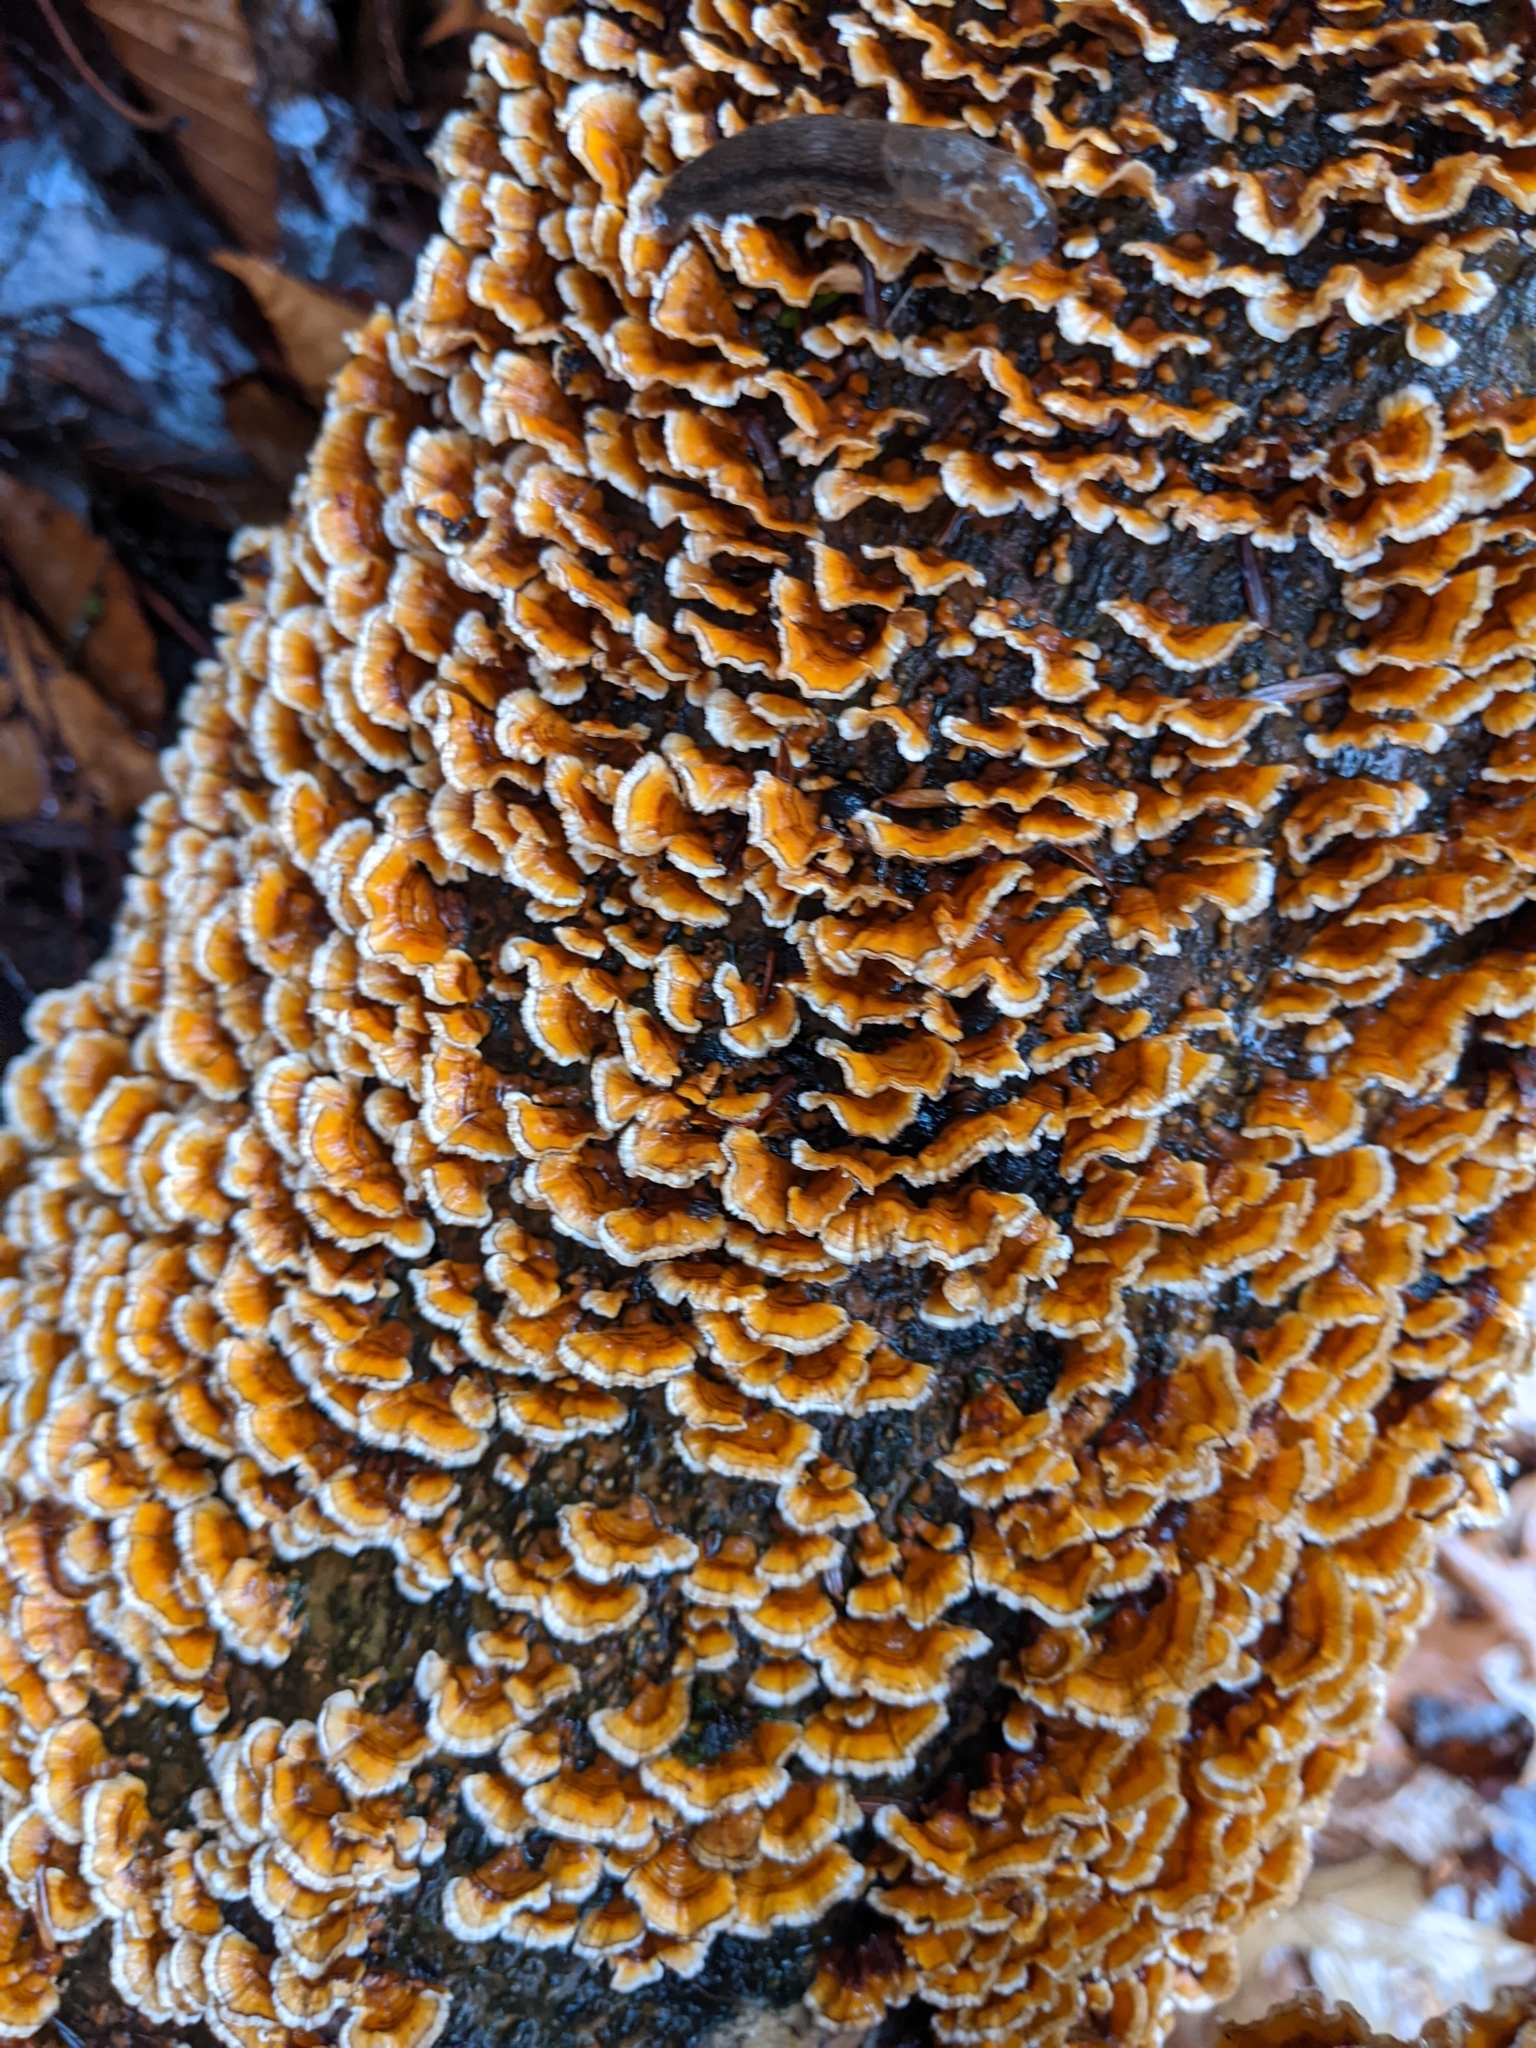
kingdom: Fungi
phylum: Basidiomycota
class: Agaricomycetes
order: Russulales
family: Stereaceae
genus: Stereum
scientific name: Stereum complicatum
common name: Crowded parchment
